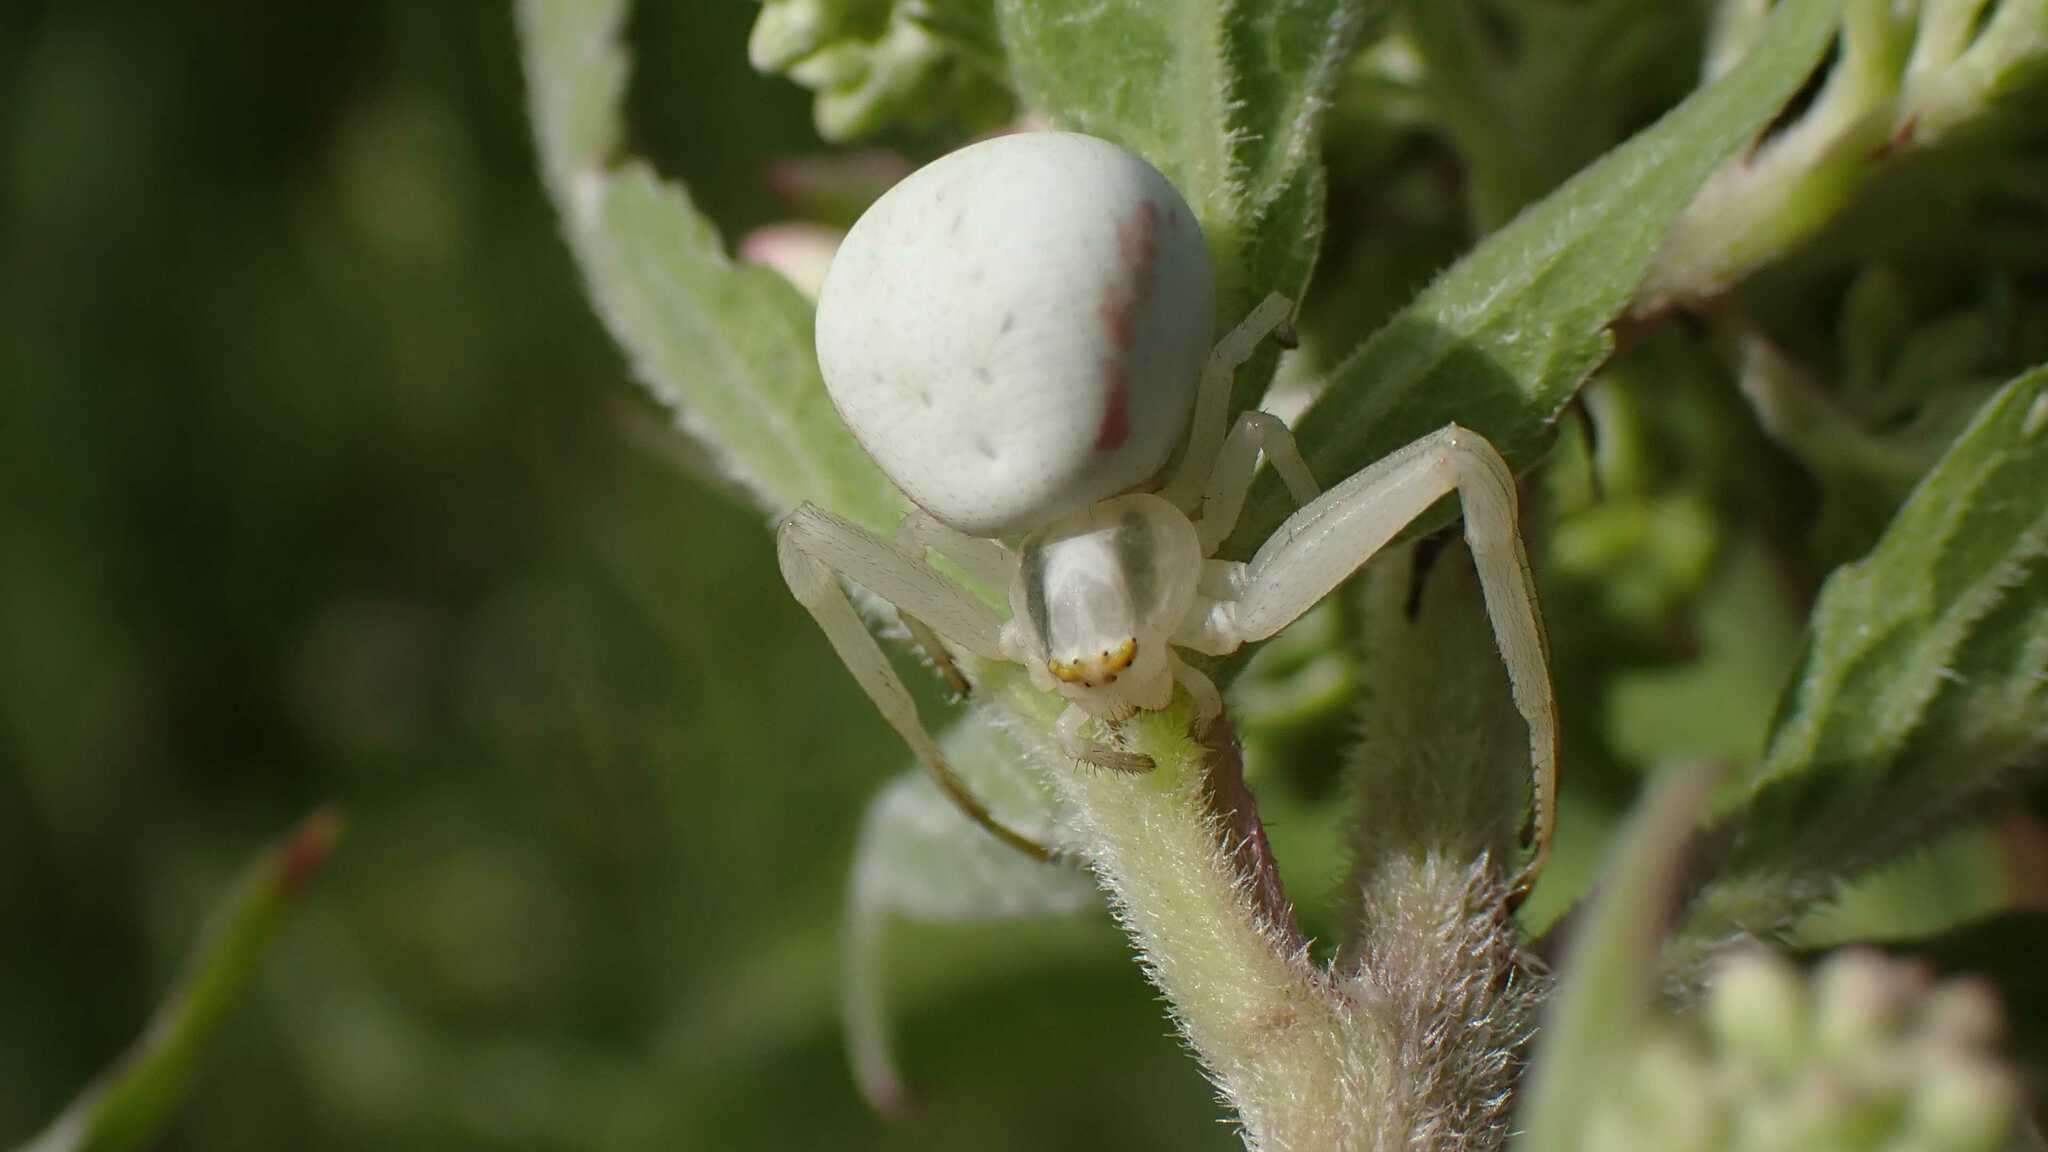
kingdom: Animalia
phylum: Arthropoda
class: Arachnida
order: Araneae
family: Thomisidae
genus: Misumena
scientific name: Misumena vatia
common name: Goldenrod crab spider
